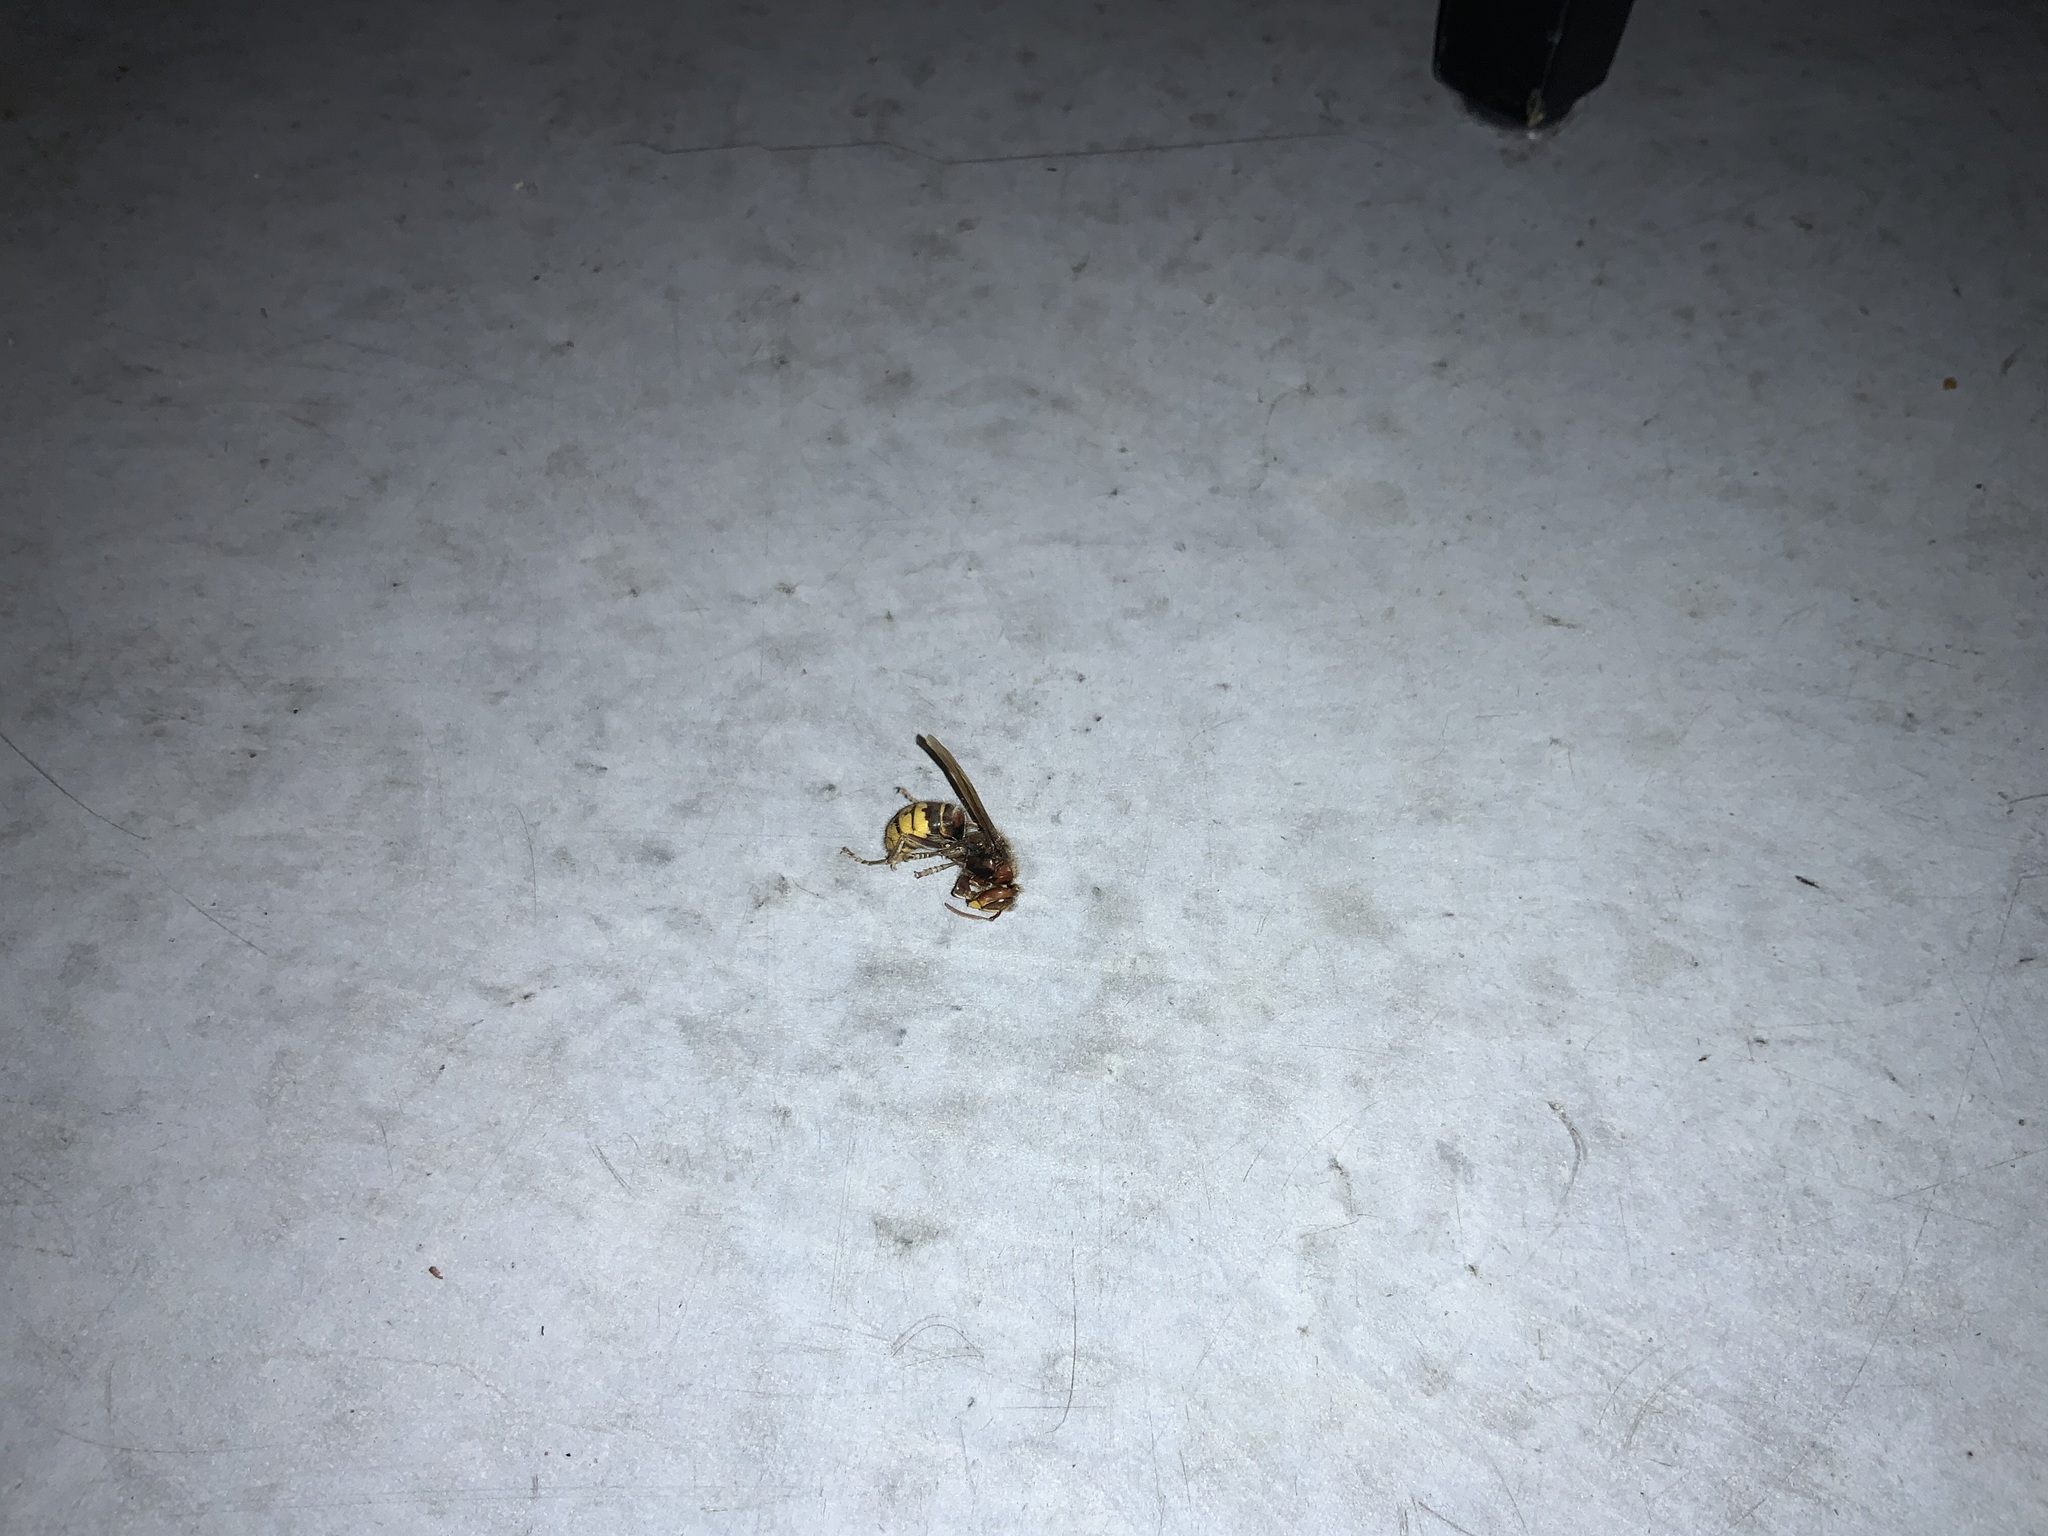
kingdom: Animalia
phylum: Arthropoda
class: Insecta
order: Hymenoptera
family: Vespidae
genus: Vespa
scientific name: Vespa crabro
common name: Hornet
